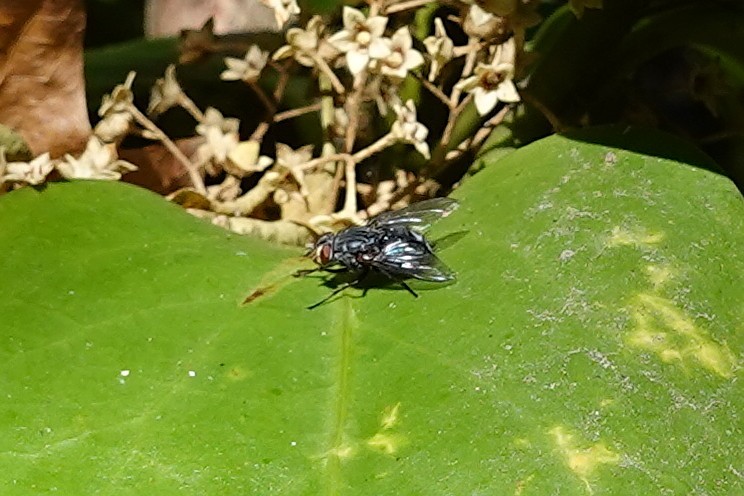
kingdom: Animalia
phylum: Arthropoda
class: Insecta
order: Diptera
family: Calliphoridae
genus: Calliphora
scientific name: Calliphora vicina
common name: Common blow flie
